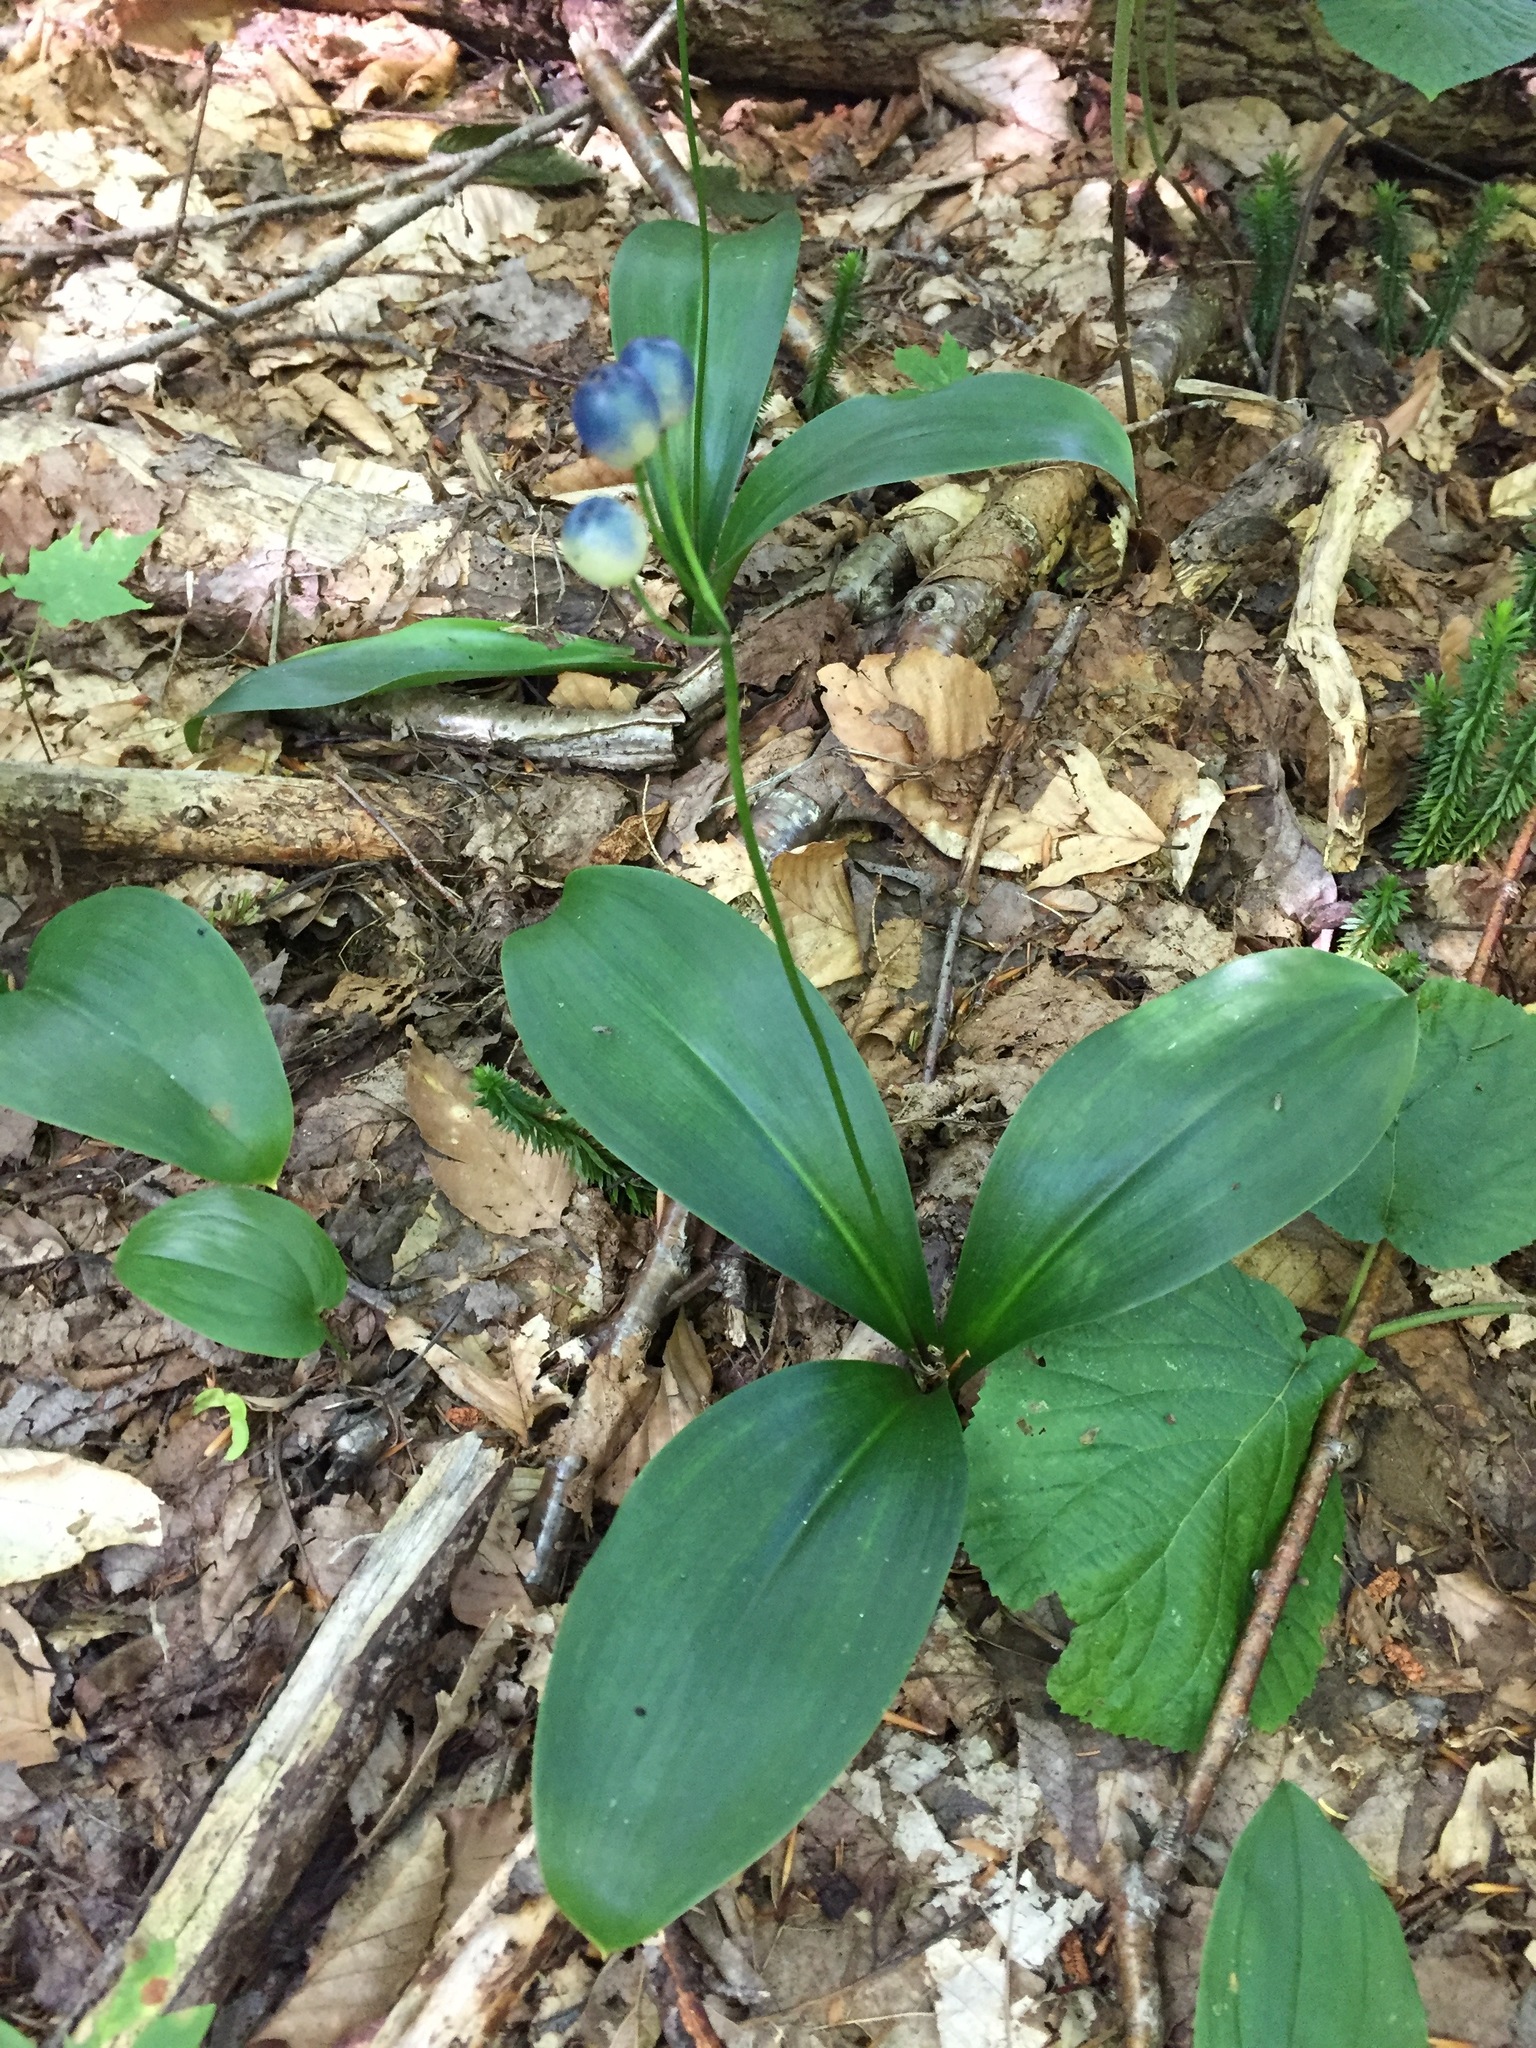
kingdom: Plantae
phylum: Tracheophyta
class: Liliopsida
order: Liliales
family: Liliaceae
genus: Clintonia
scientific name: Clintonia borealis
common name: Yellow clintonia
